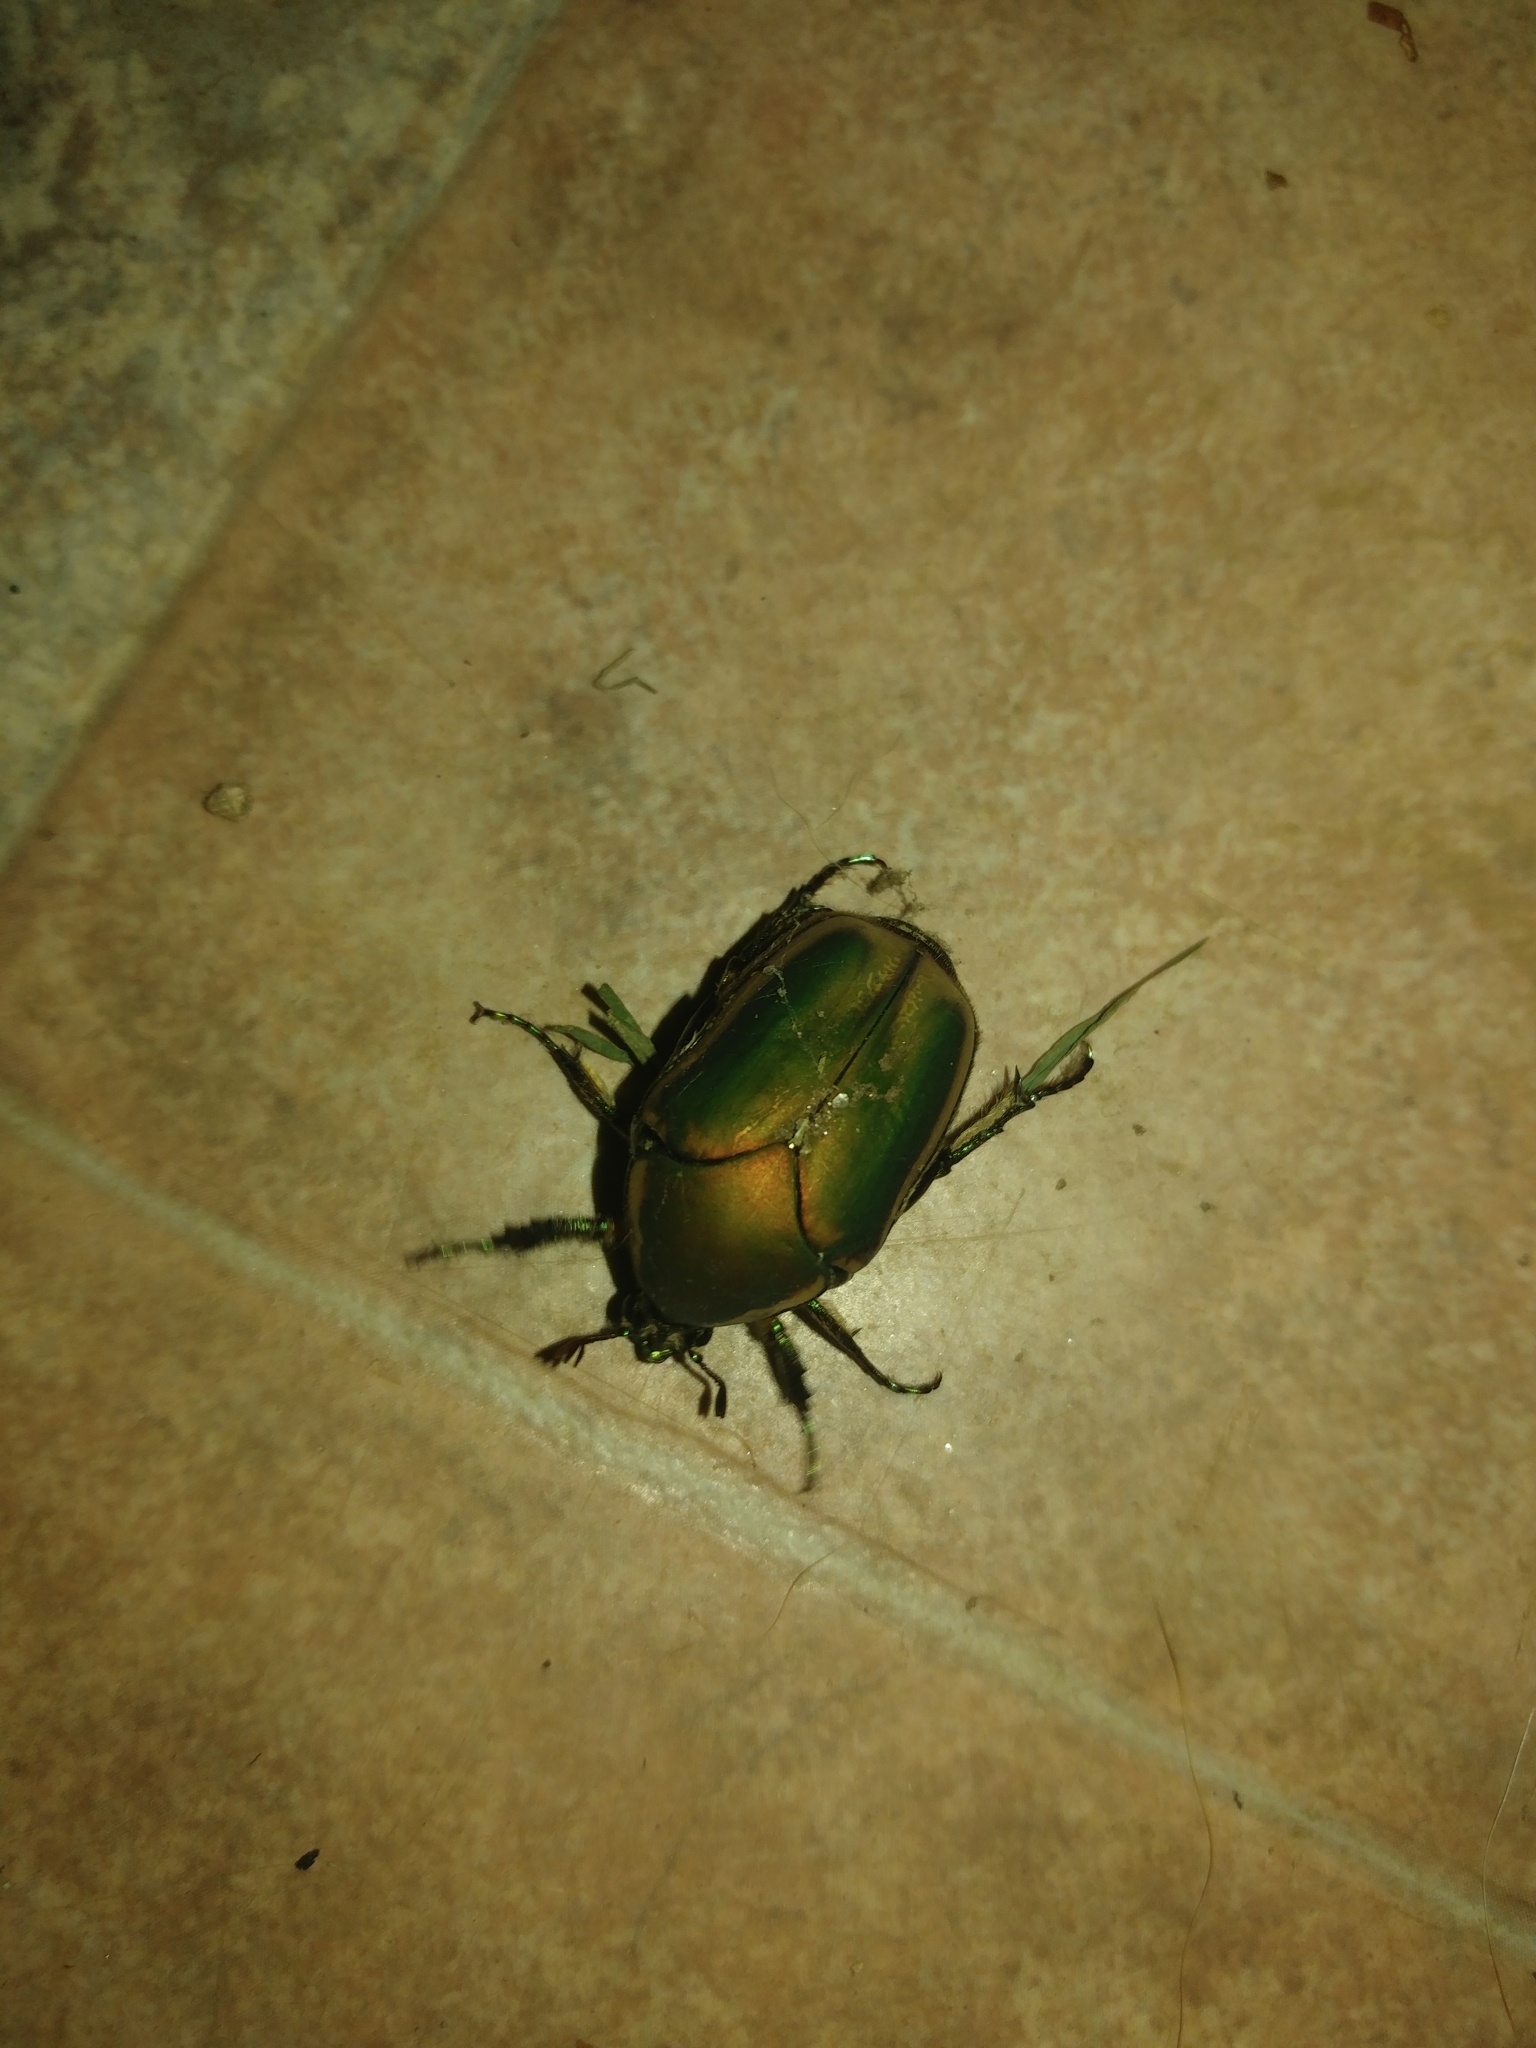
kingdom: Animalia
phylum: Arthropoda
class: Insecta
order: Coleoptera
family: Scarabaeidae
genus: Cotinis
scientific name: Cotinis nitida
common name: Common green june beetle
